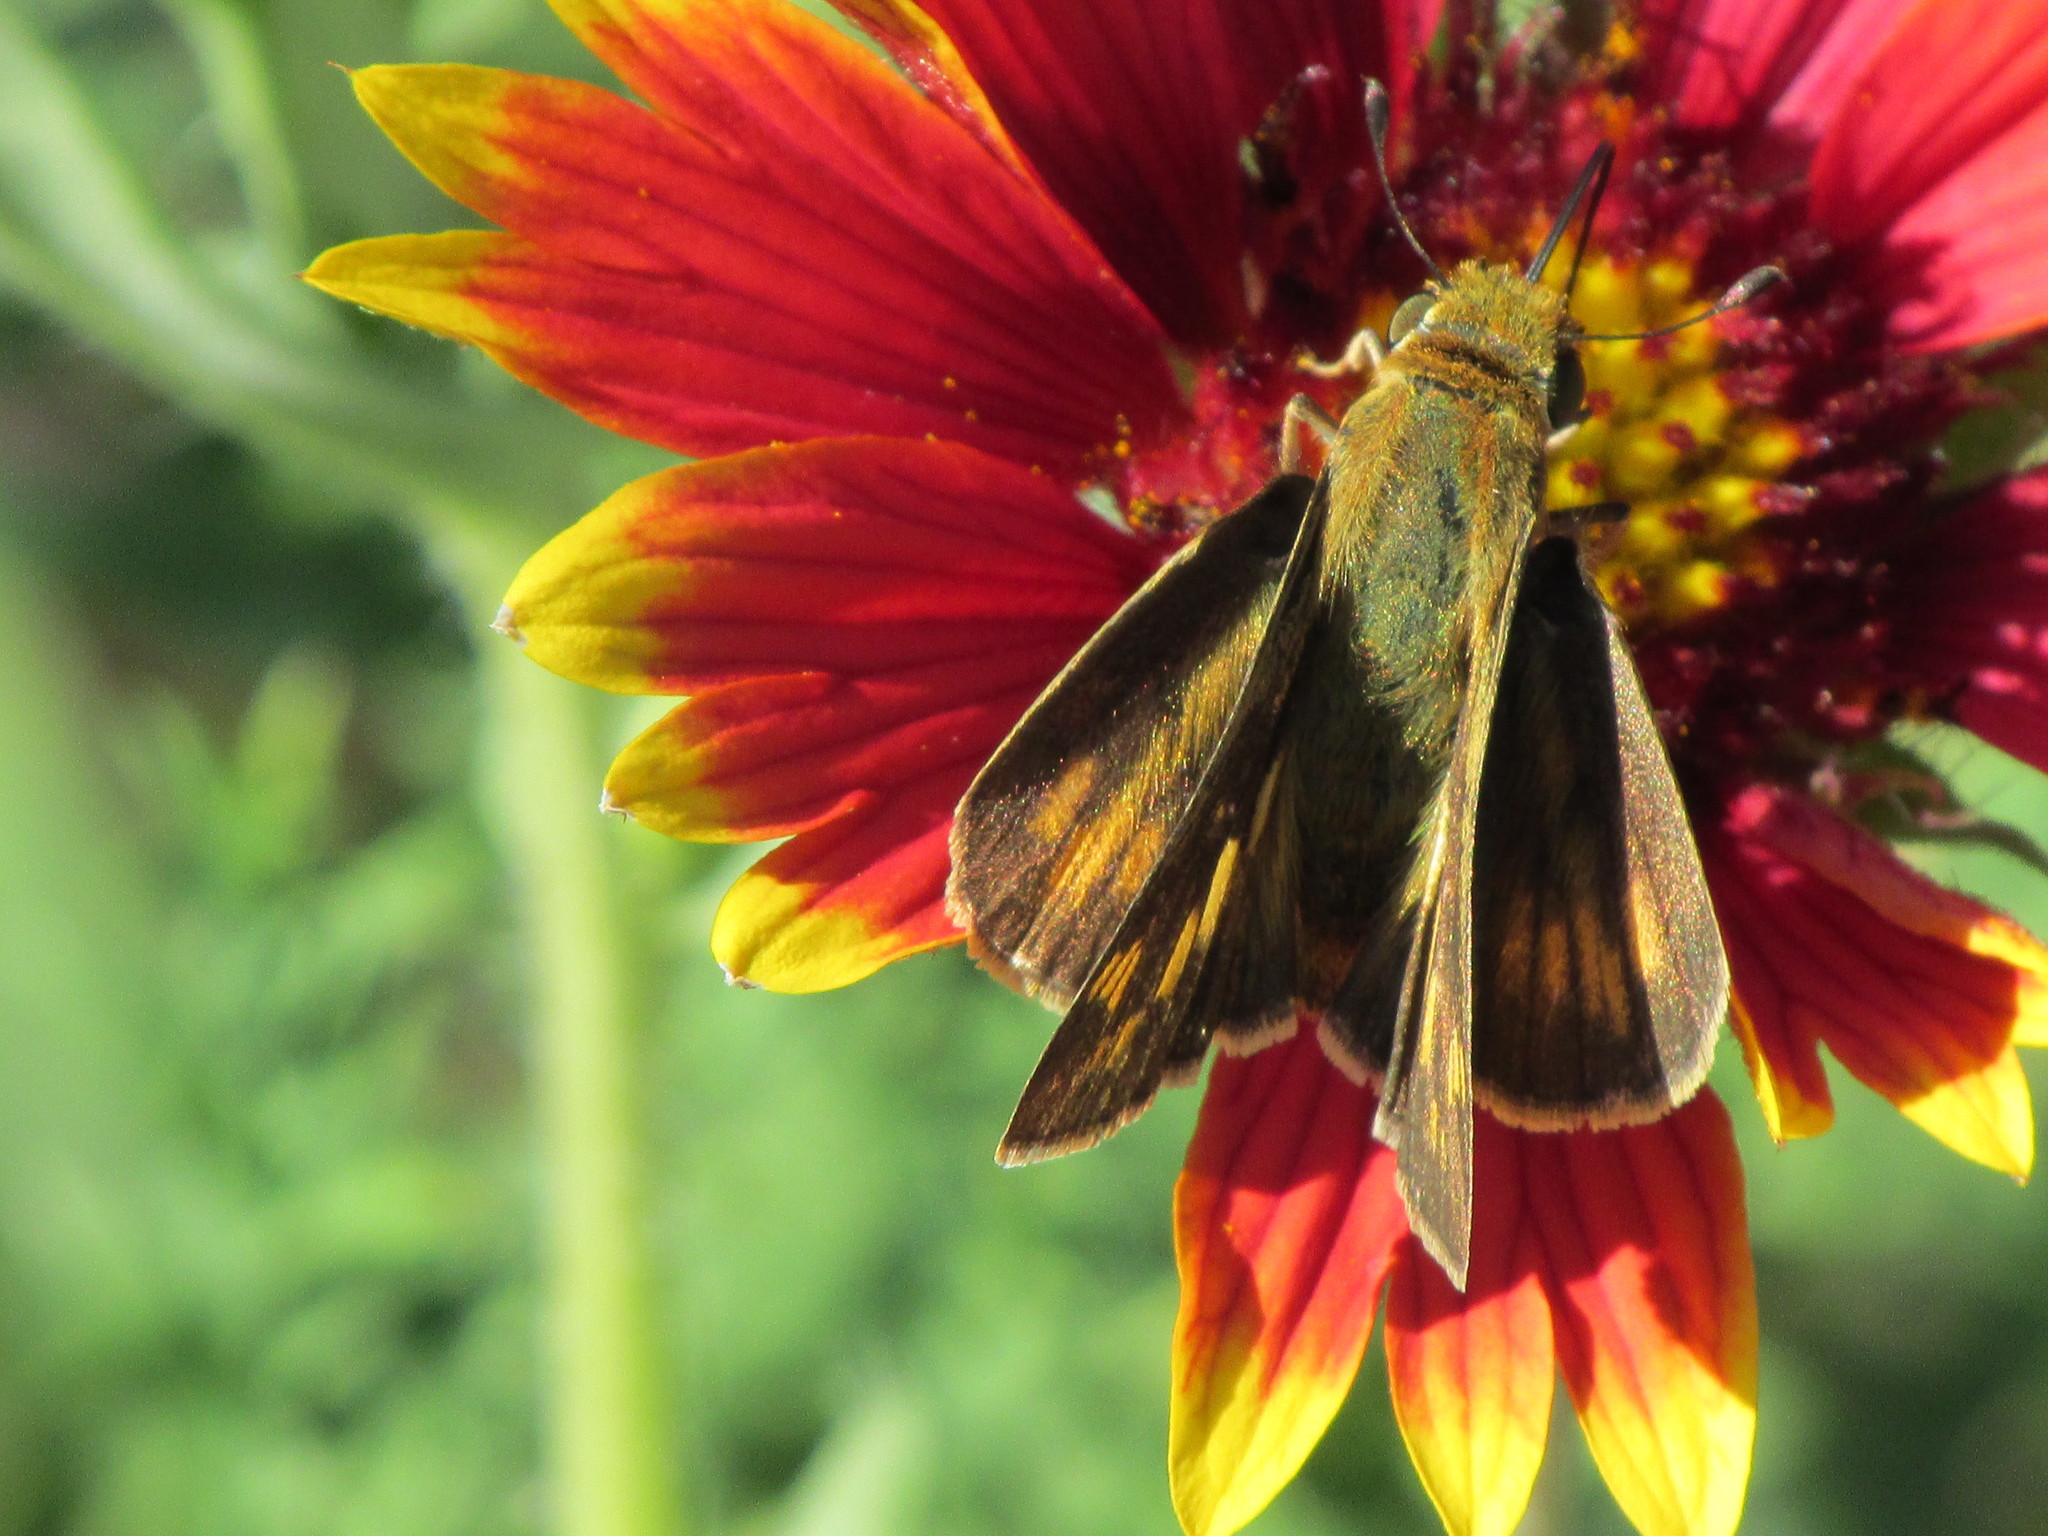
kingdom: Animalia
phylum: Arthropoda
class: Insecta
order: Lepidoptera
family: Hesperiidae
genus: Hylephila
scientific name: Hylephila phyleus
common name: Fiery skipper
